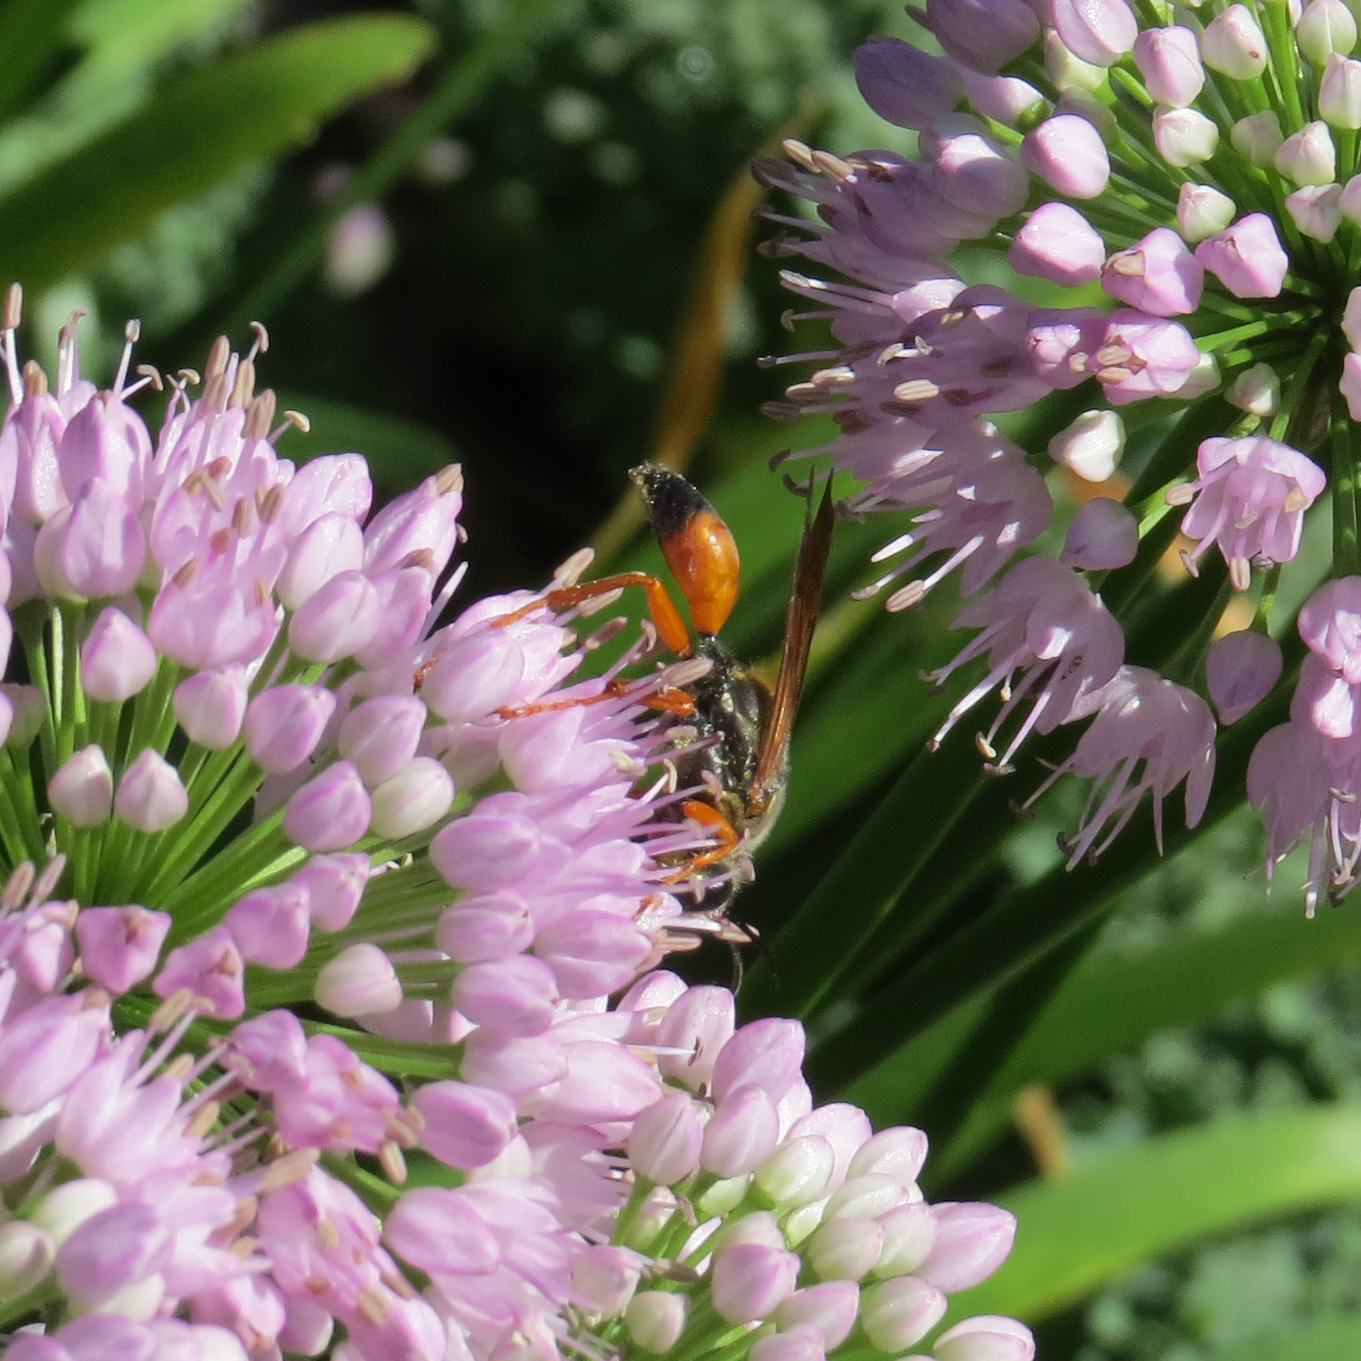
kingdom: Animalia
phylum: Arthropoda
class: Insecta
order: Hymenoptera
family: Sphecidae
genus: Sphex
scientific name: Sphex ichneumoneus
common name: Great golden digger wasp
